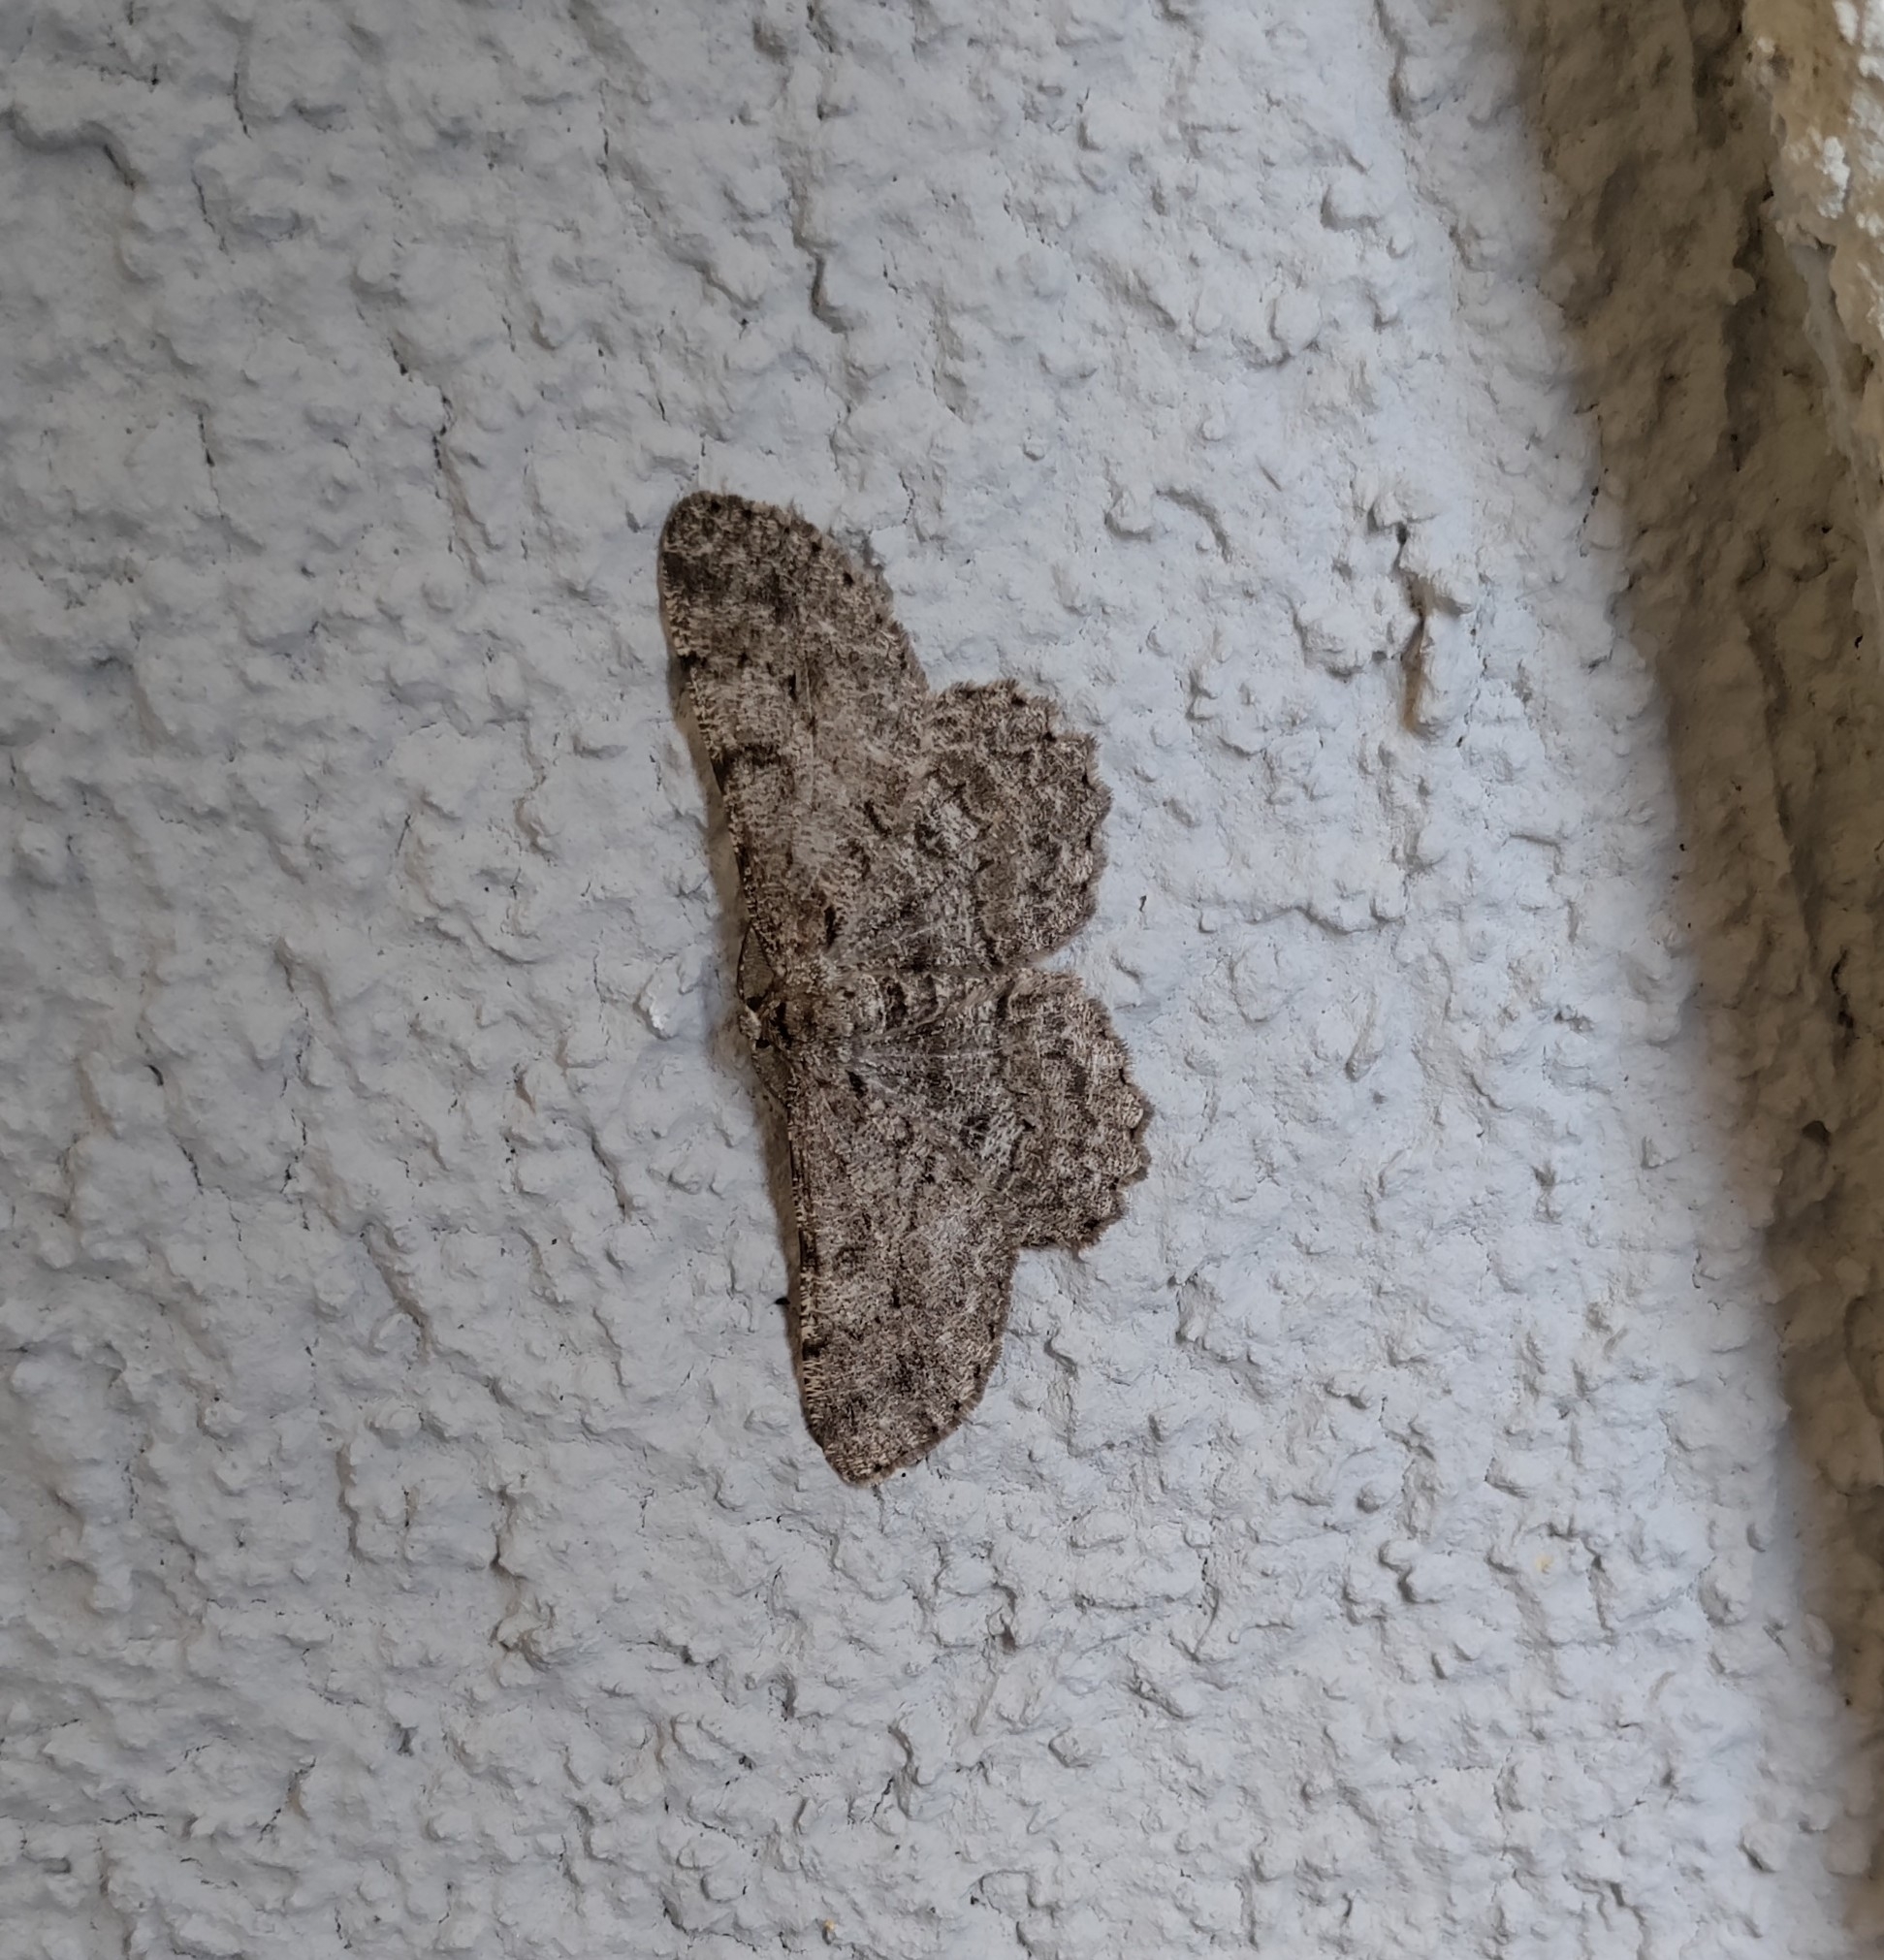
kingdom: Animalia
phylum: Arthropoda
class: Insecta
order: Lepidoptera
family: Geometridae
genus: Hypomecis
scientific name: Hypomecis punctinalis
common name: Pale oak beauty
